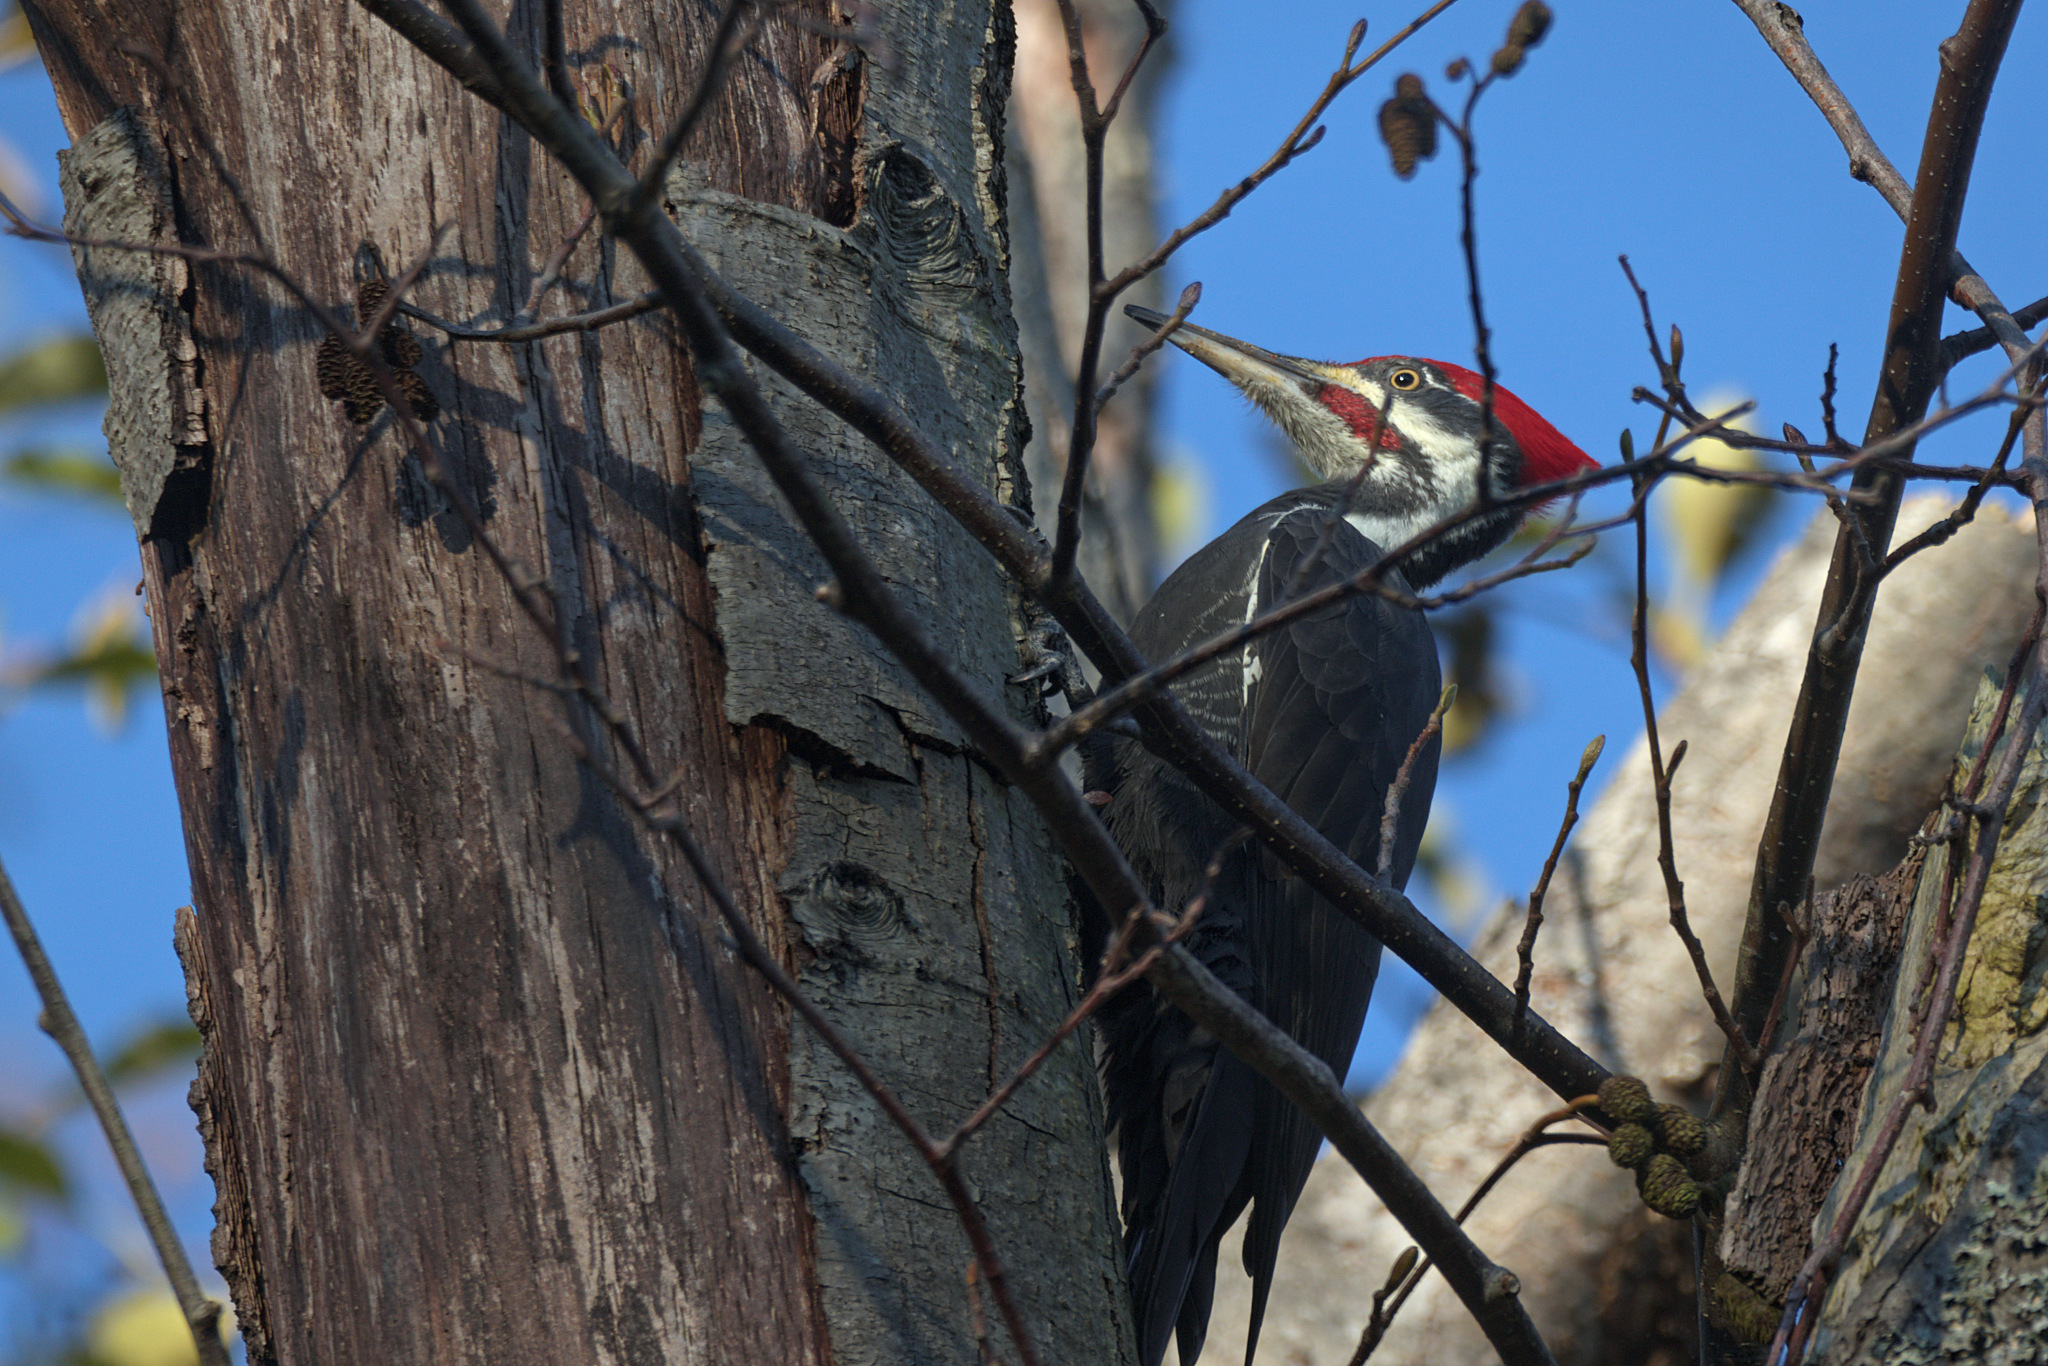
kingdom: Animalia
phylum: Chordata
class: Aves
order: Piciformes
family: Picidae
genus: Dryocopus
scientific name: Dryocopus pileatus
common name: Pileated woodpecker
